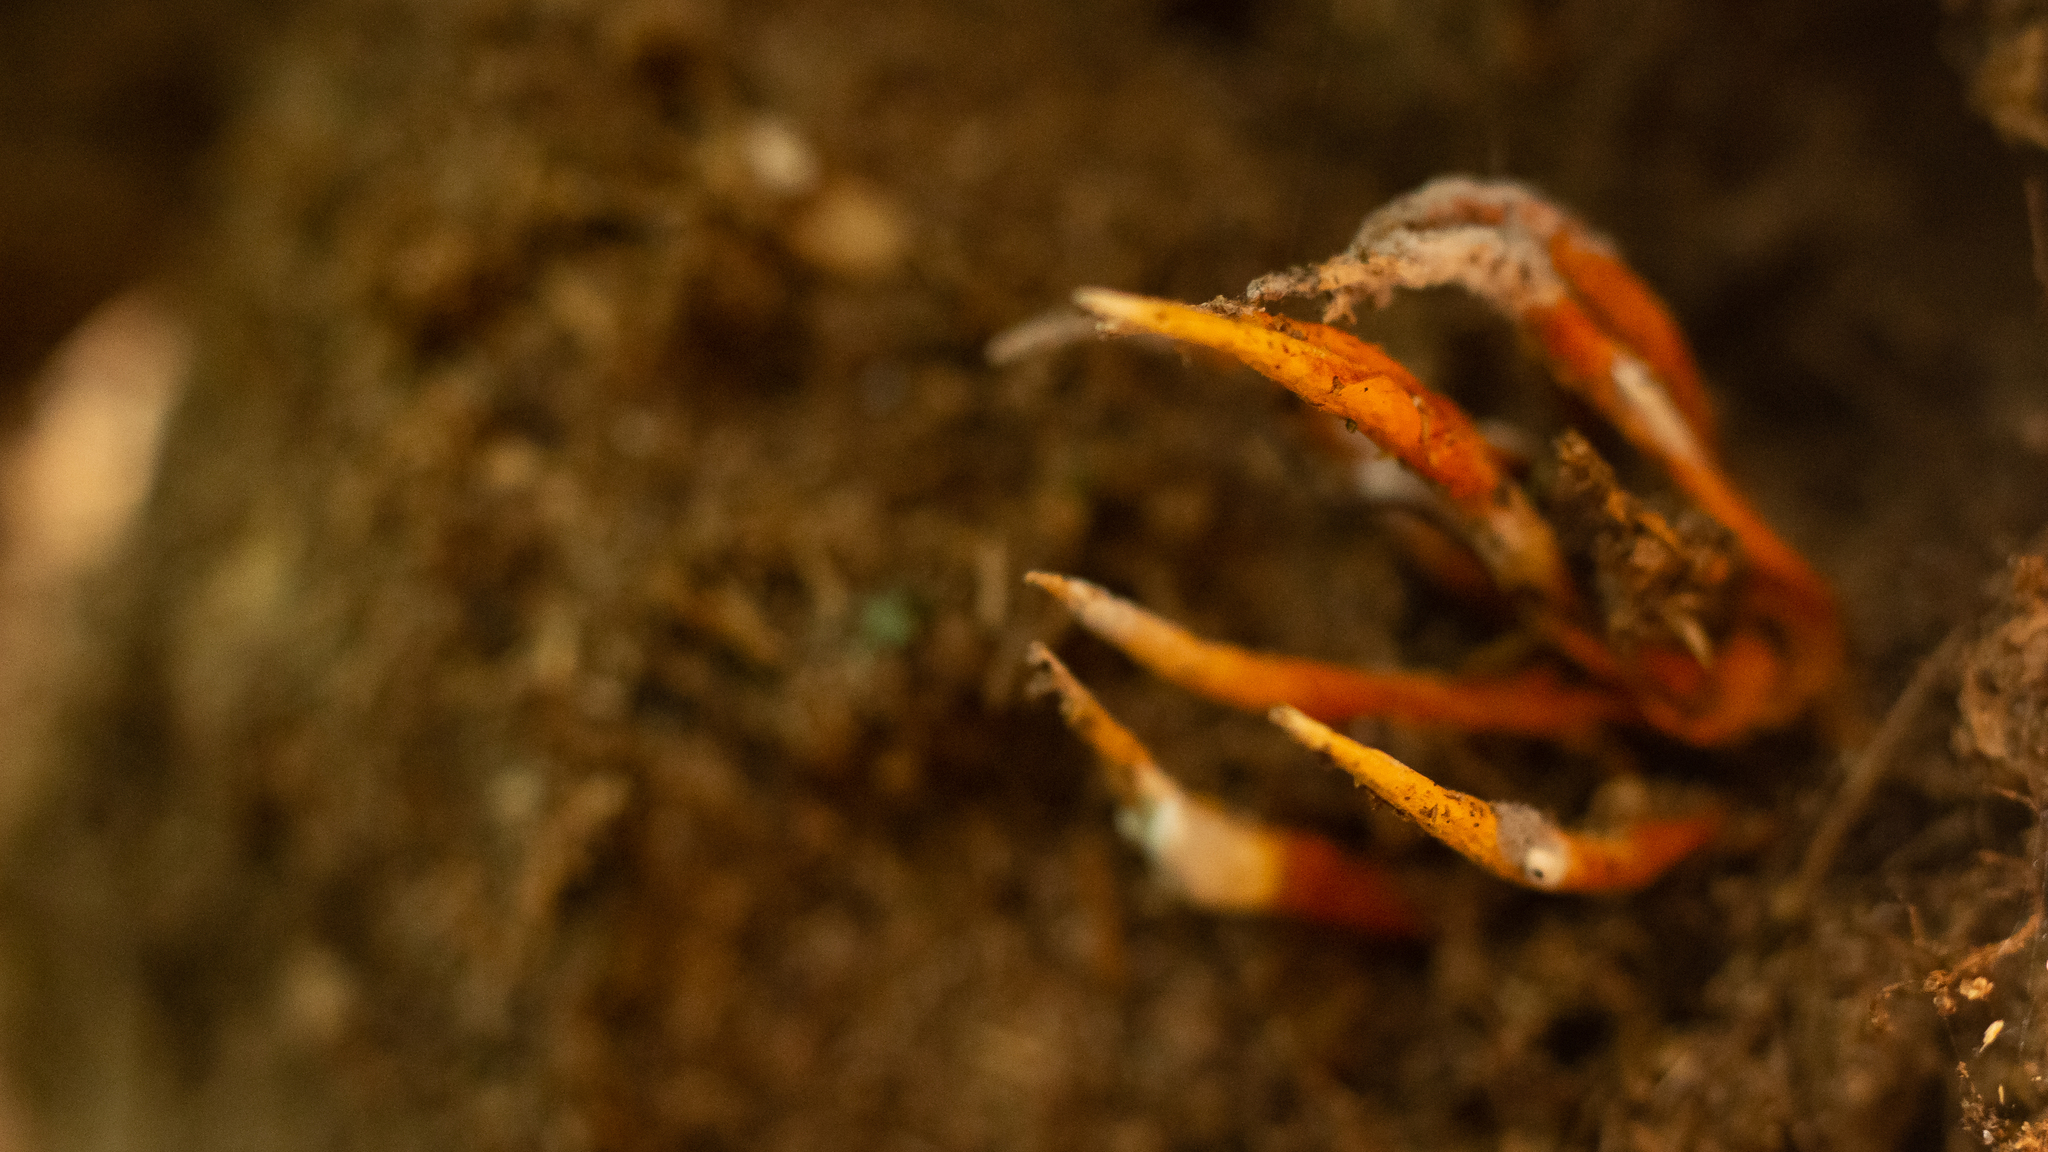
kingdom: Fungi
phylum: Ascomycota
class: Sordariomycetes
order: Hypocreales
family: Clavicipitaceae
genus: Nigelia
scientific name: Nigelia martiale
